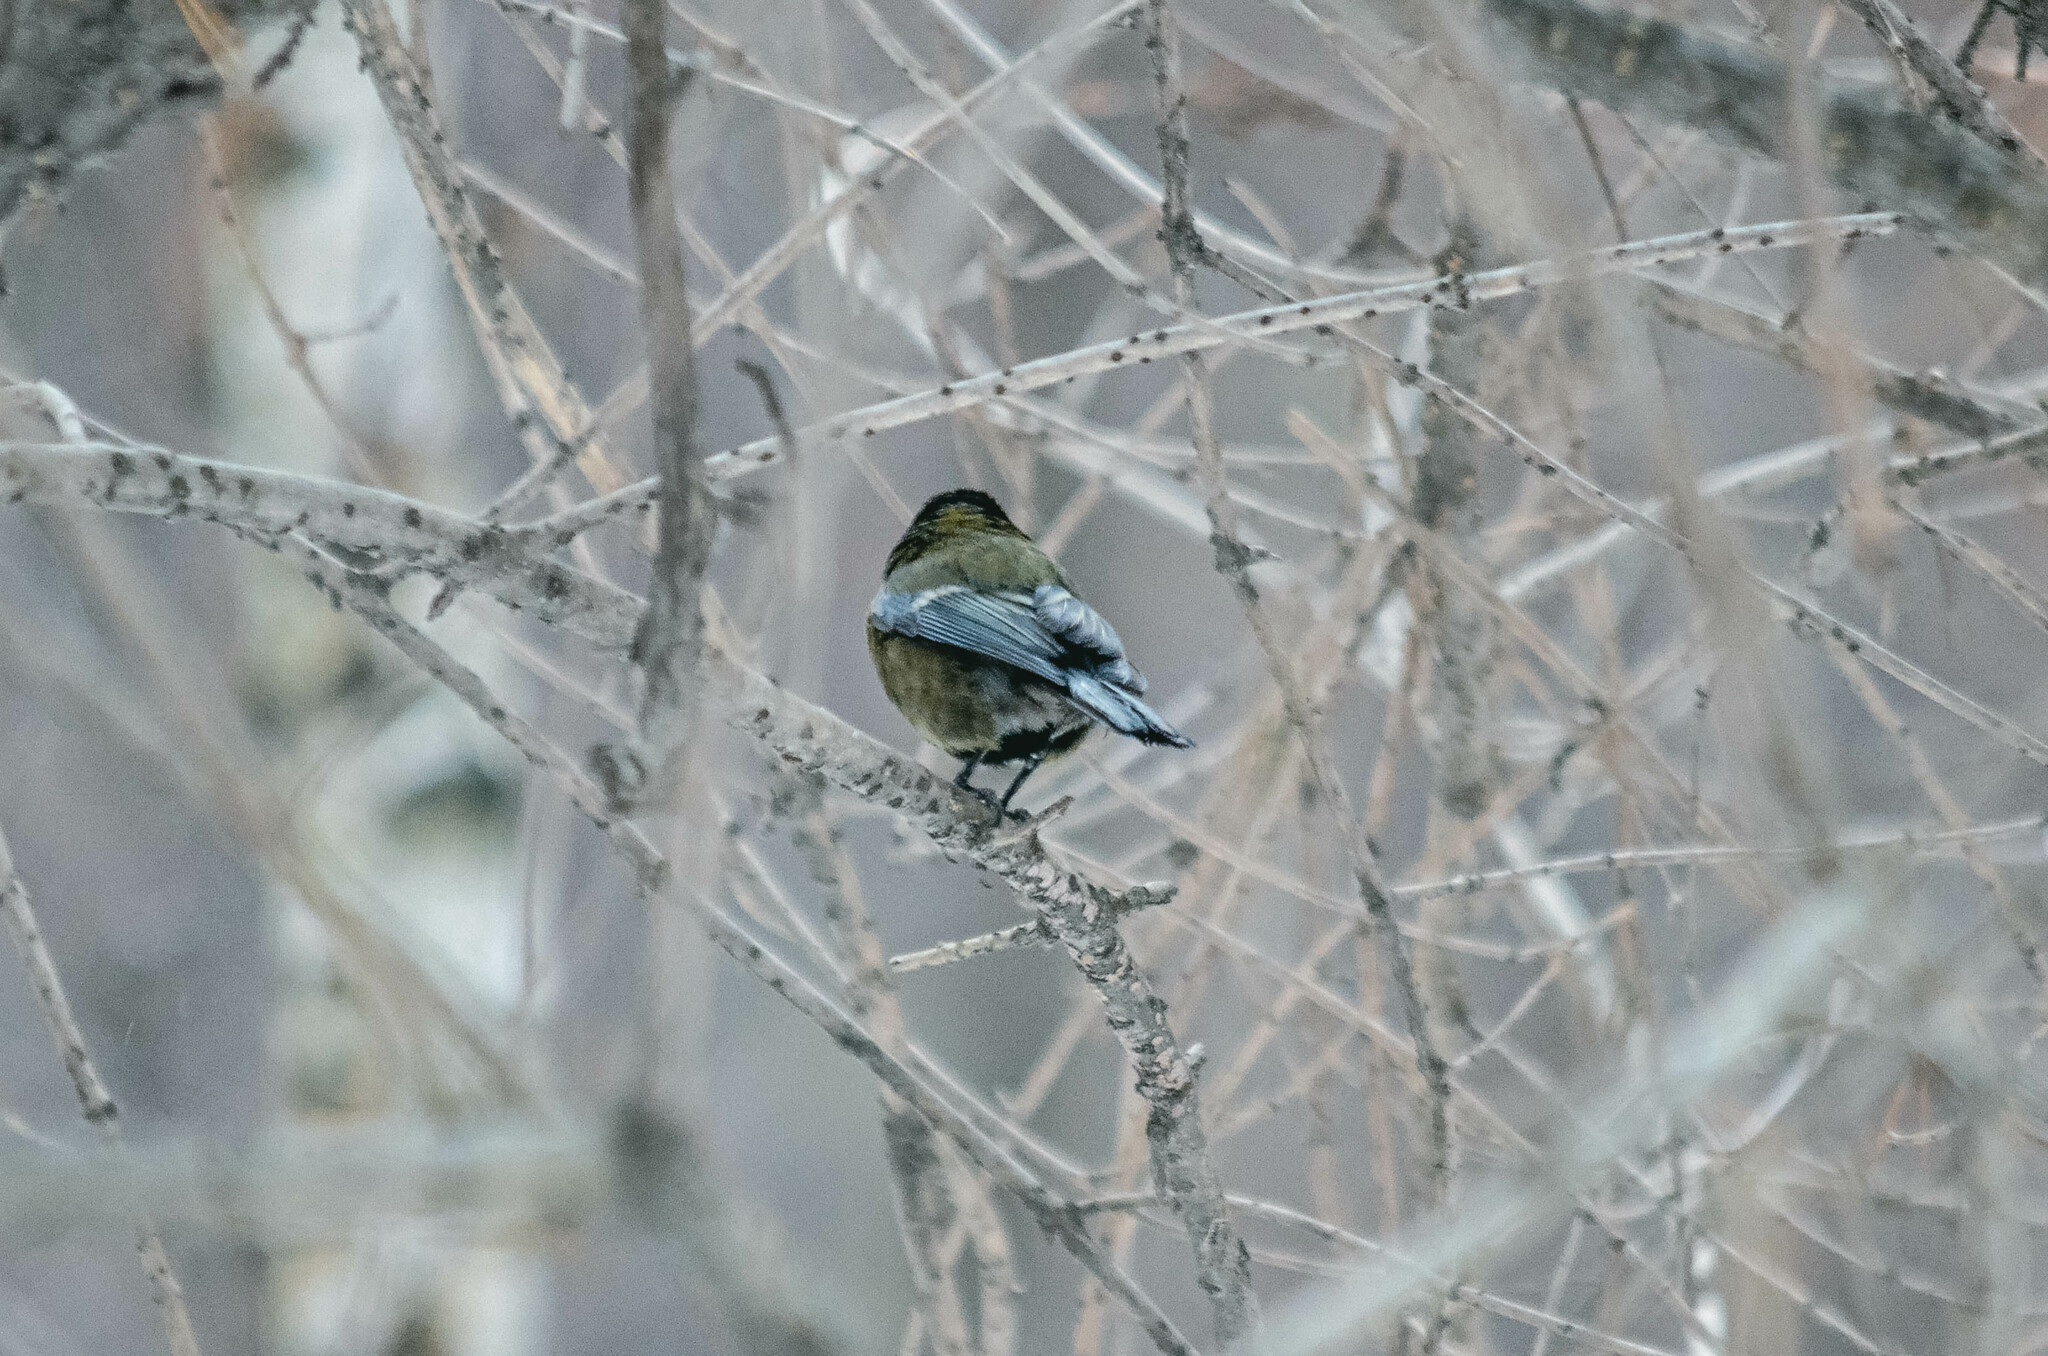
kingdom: Animalia
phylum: Chordata
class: Aves
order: Passeriformes
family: Paridae
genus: Parus
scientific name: Parus major
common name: Great tit
